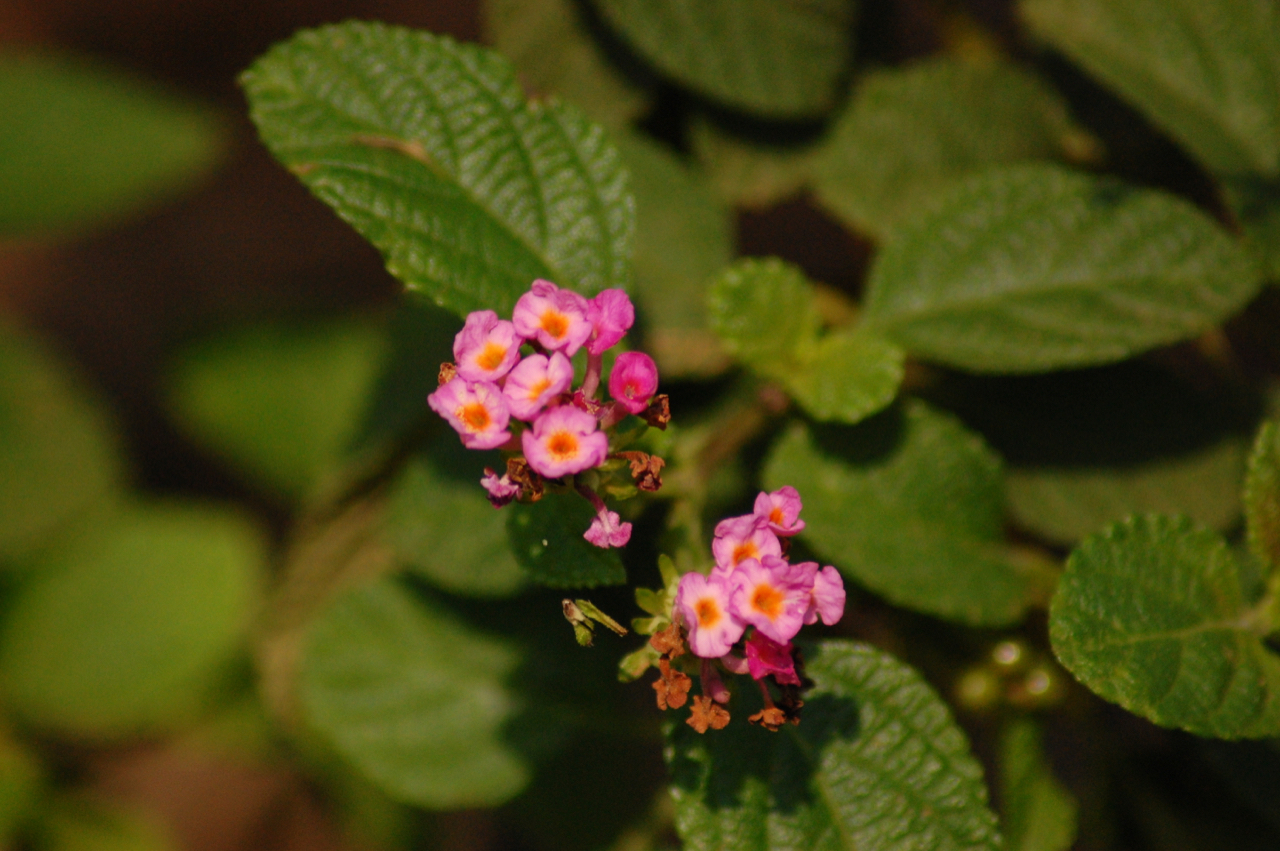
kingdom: Plantae
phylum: Tracheophyta
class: Magnoliopsida
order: Lamiales
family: Verbenaceae
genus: Lantana
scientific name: Lantana camara
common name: Lantana
